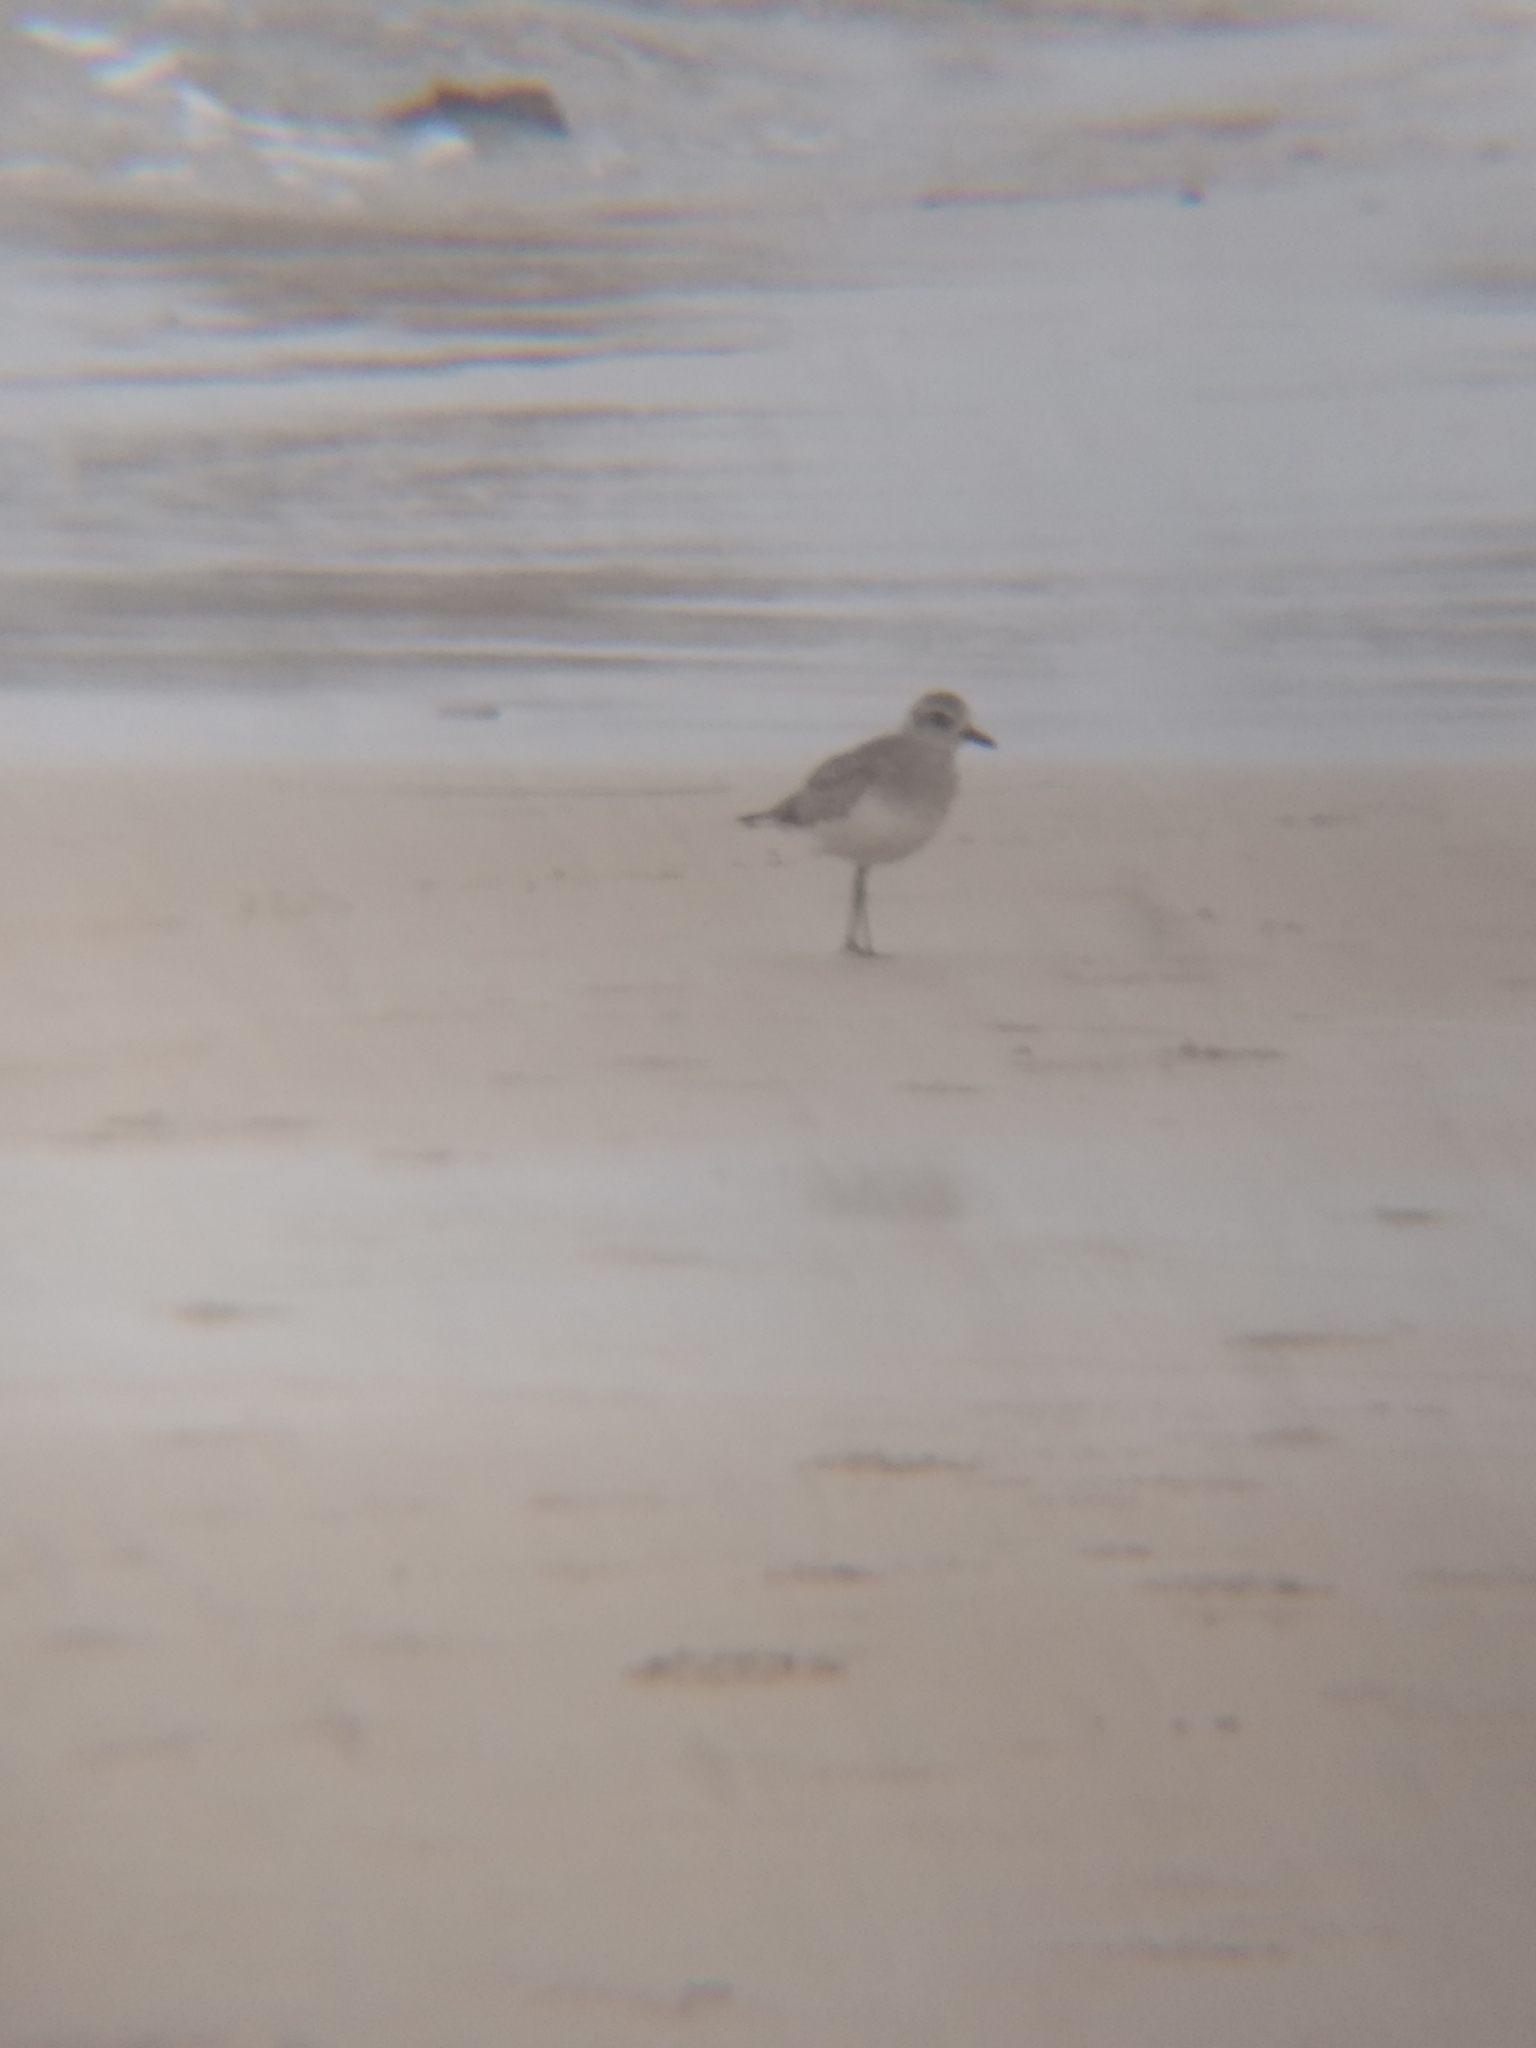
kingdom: Animalia
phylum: Chordata
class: Aves
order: Charadriiformes
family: Charadriidae
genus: Pluvialis
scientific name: Pluvialis squatarola
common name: Grey plover
